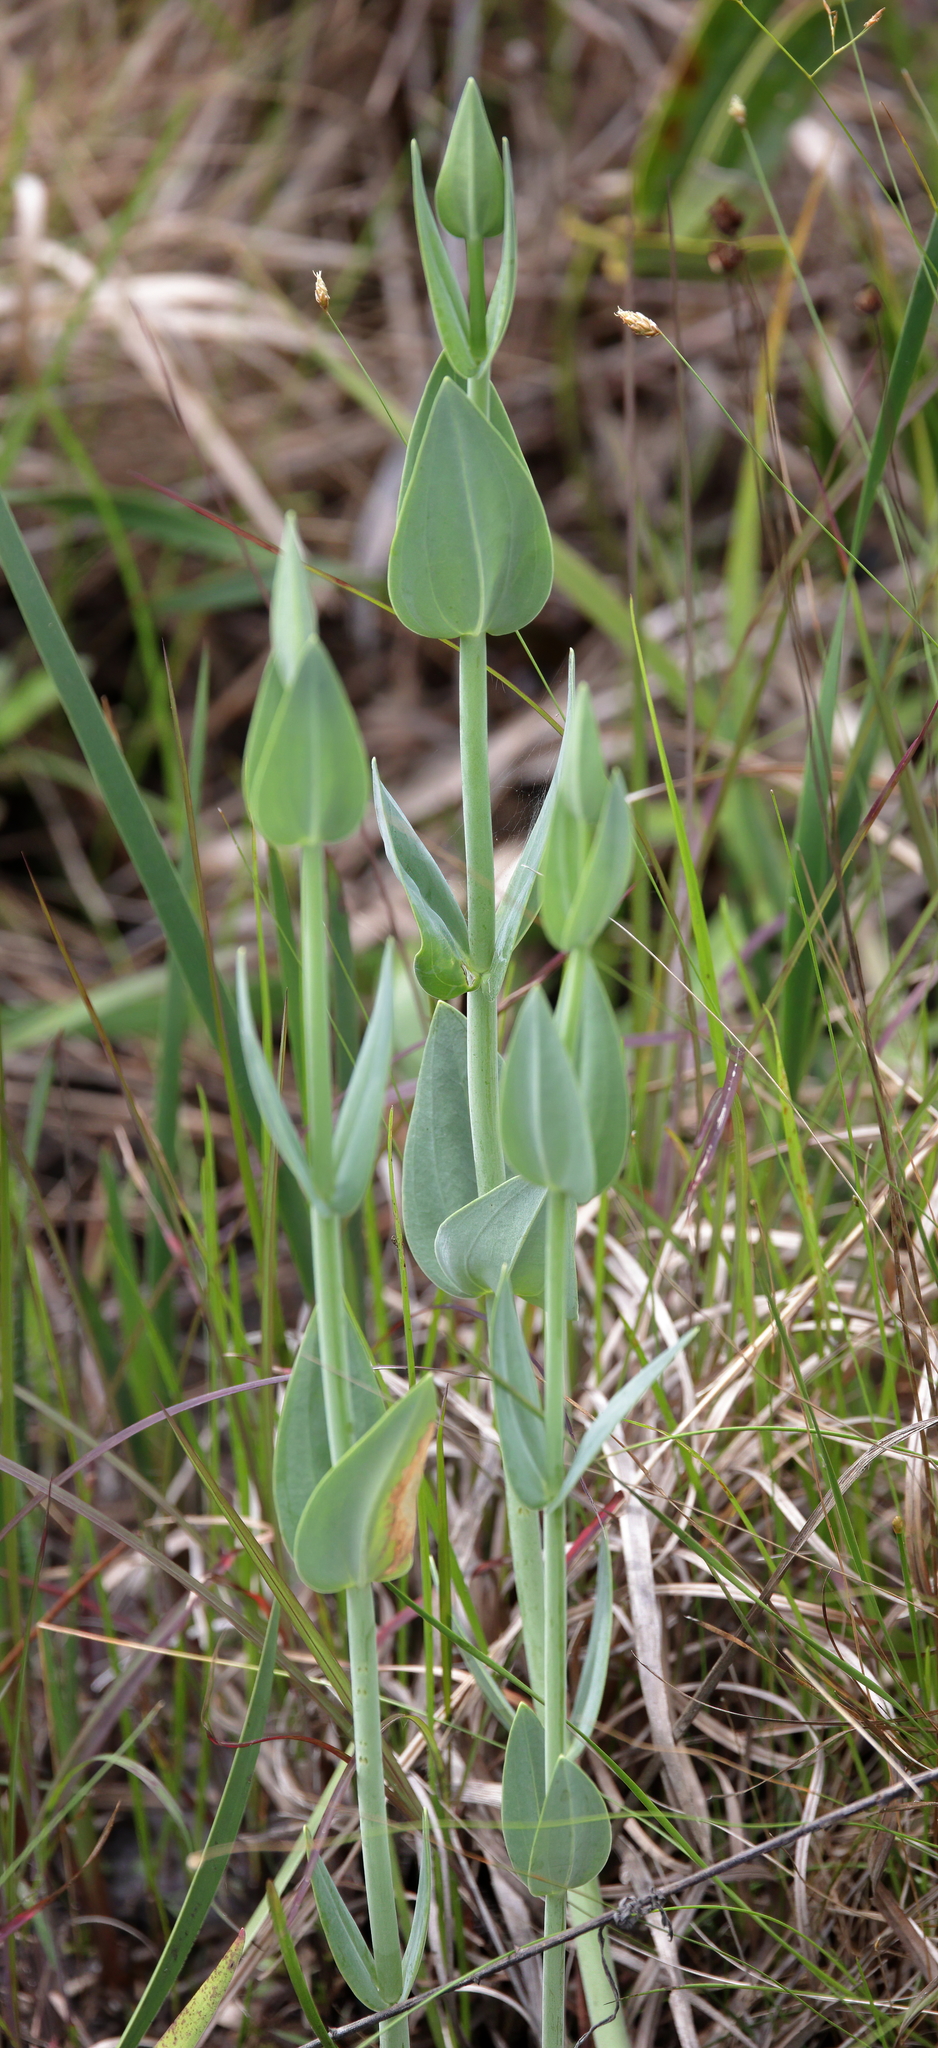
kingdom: Plantae
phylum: Tracheophyta
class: Magnoliopsida
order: Gentianales
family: Gentianaceae
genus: Eustoma
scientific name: Eustoma exaltatum
